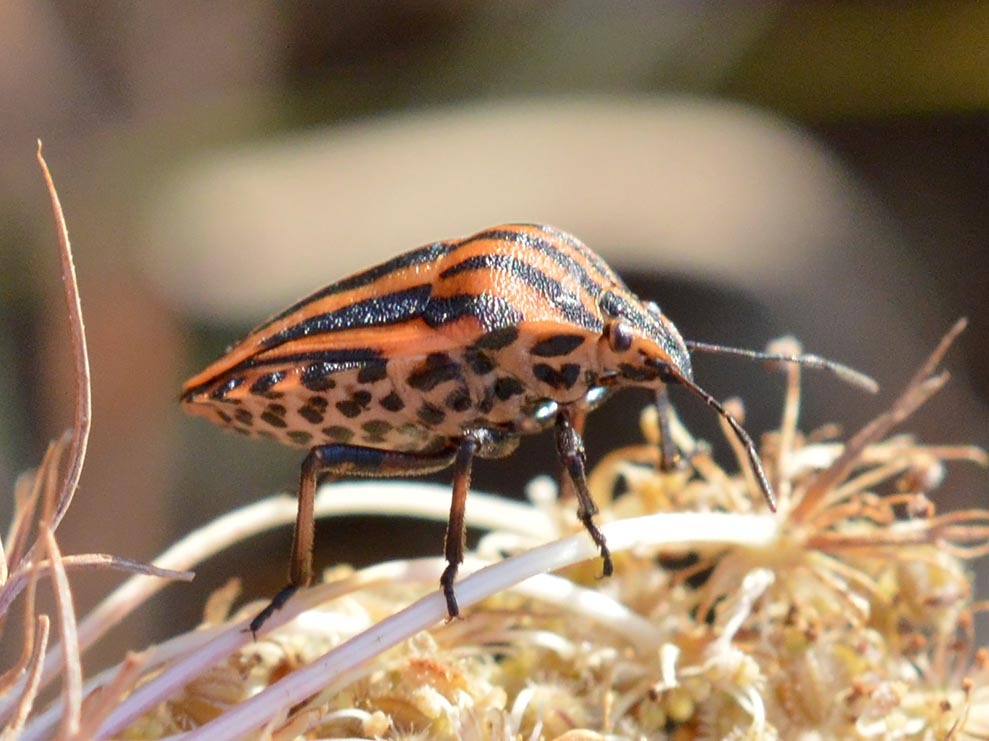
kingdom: Animalia
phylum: Arthropoda
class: Insecta
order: Hemiptera
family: Pentatomidae
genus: Graphosoma
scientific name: Graphosoma italicum
